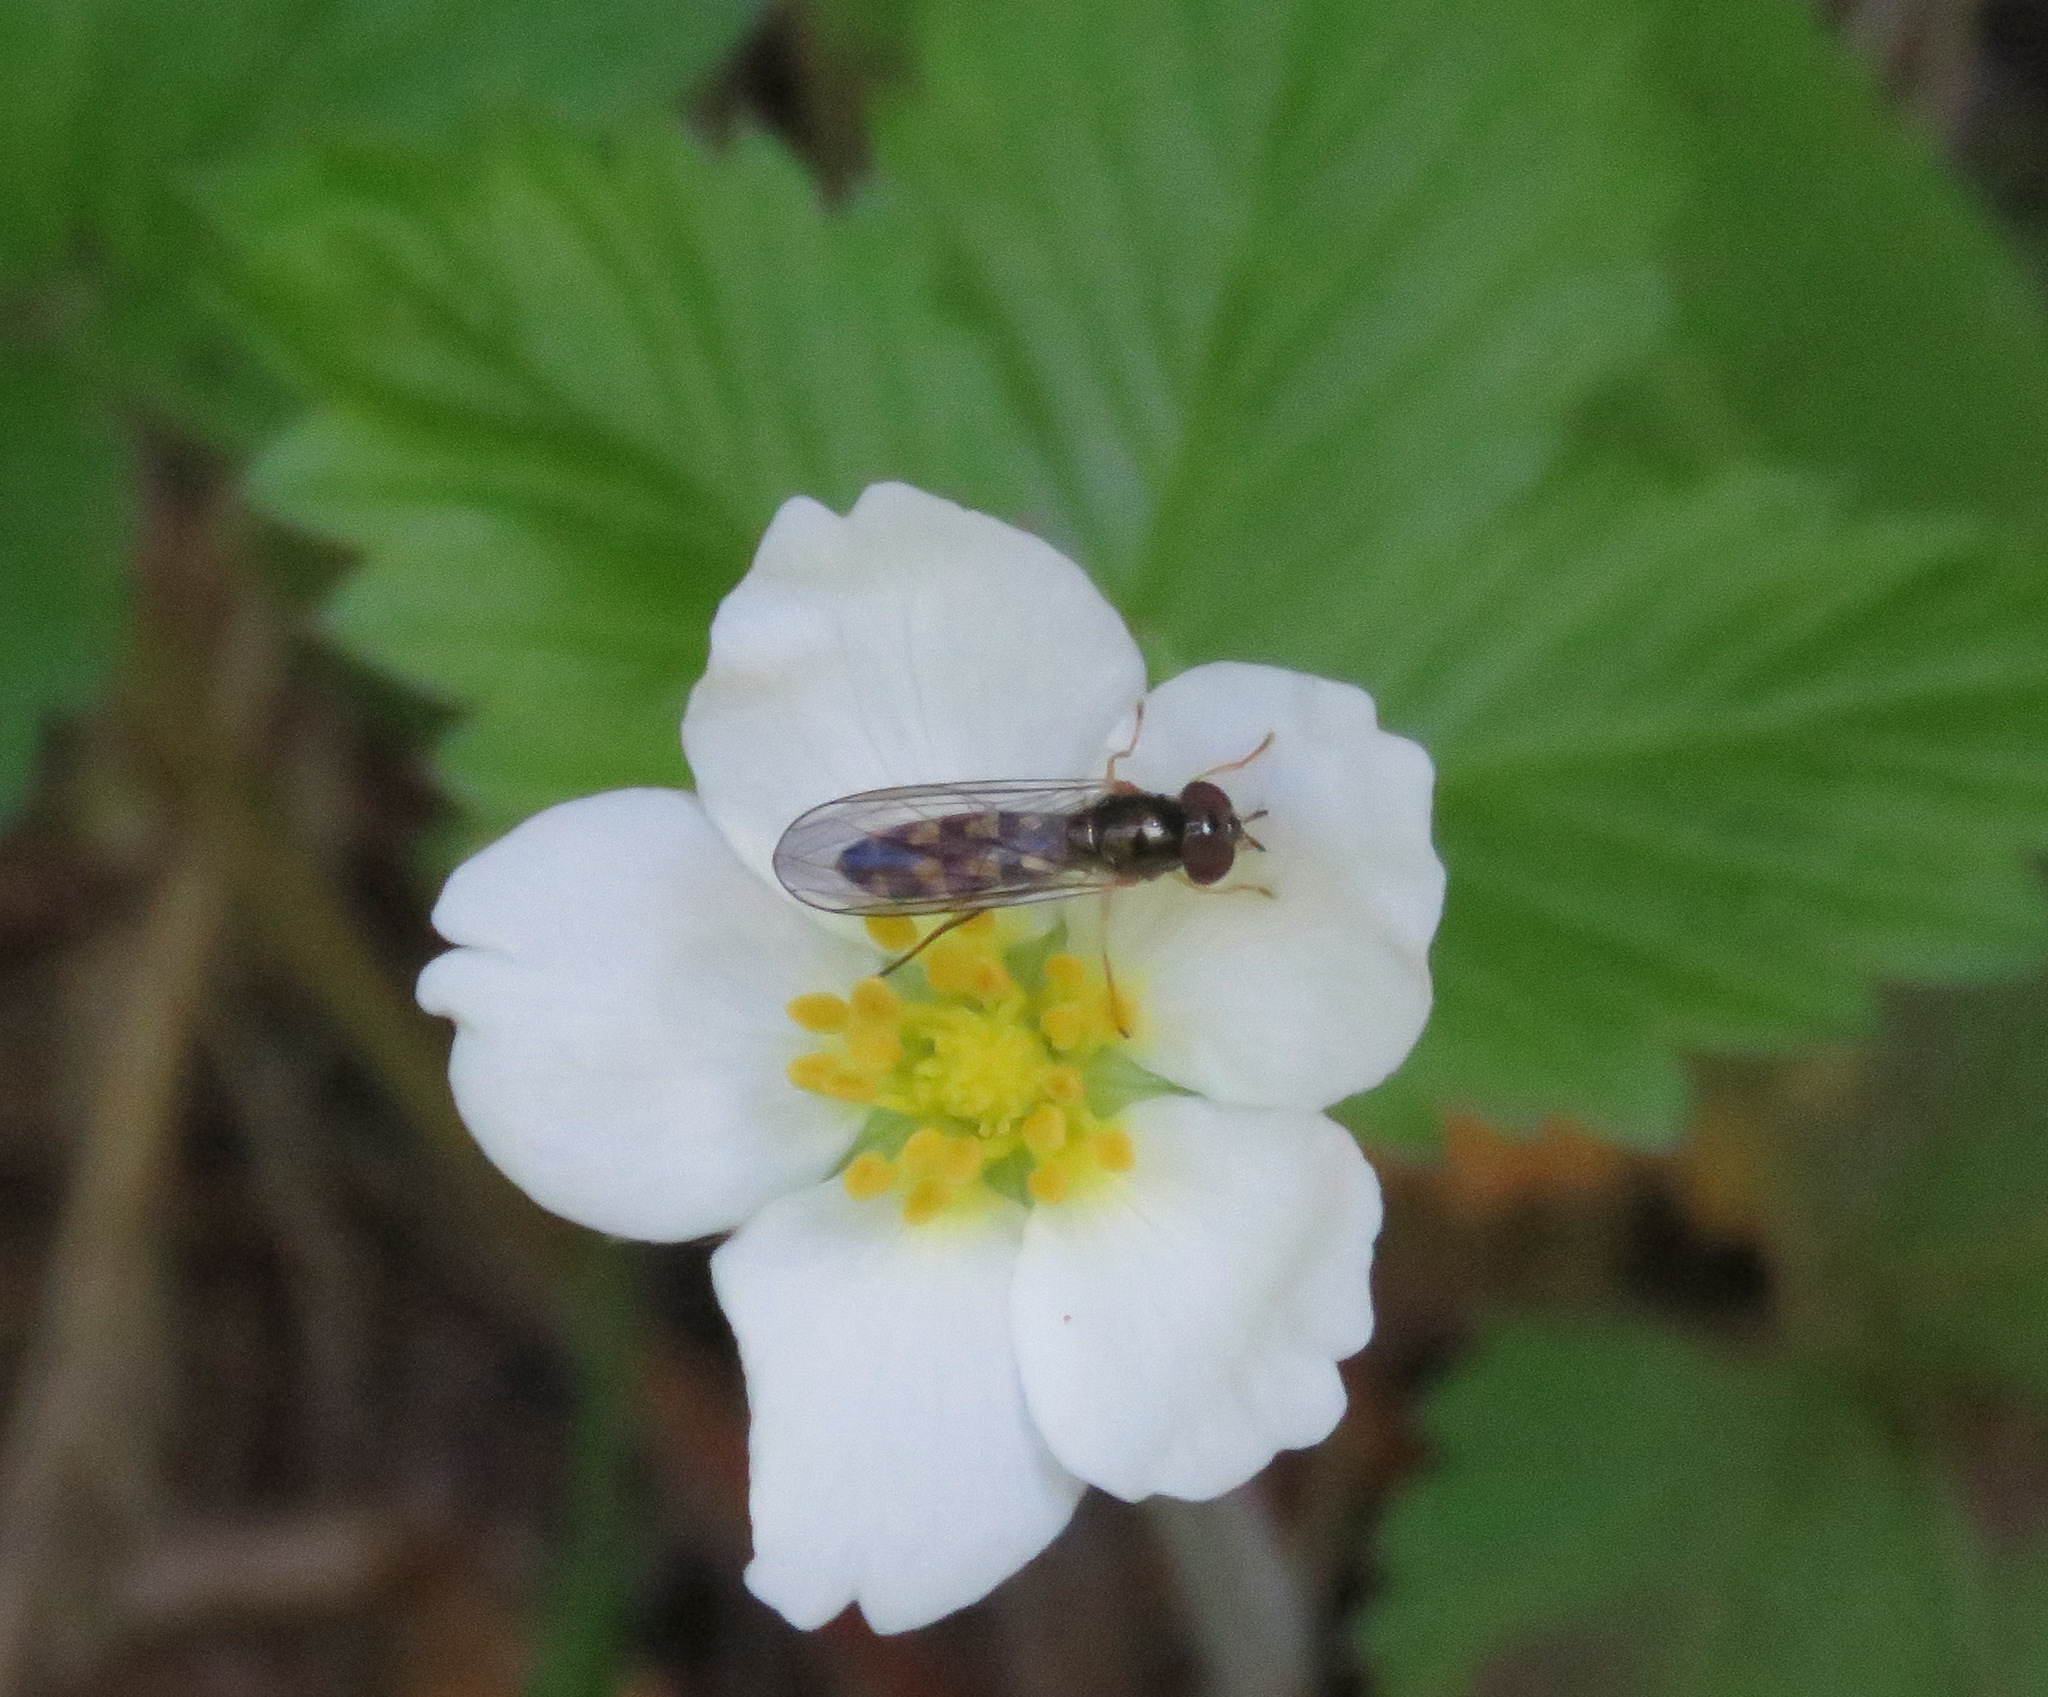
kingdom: Animalia
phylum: Arthropoda
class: Insecta
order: Diptera
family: Syrphidae
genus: Melanostoma
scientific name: Melanostoma mellina
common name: Hover fly
